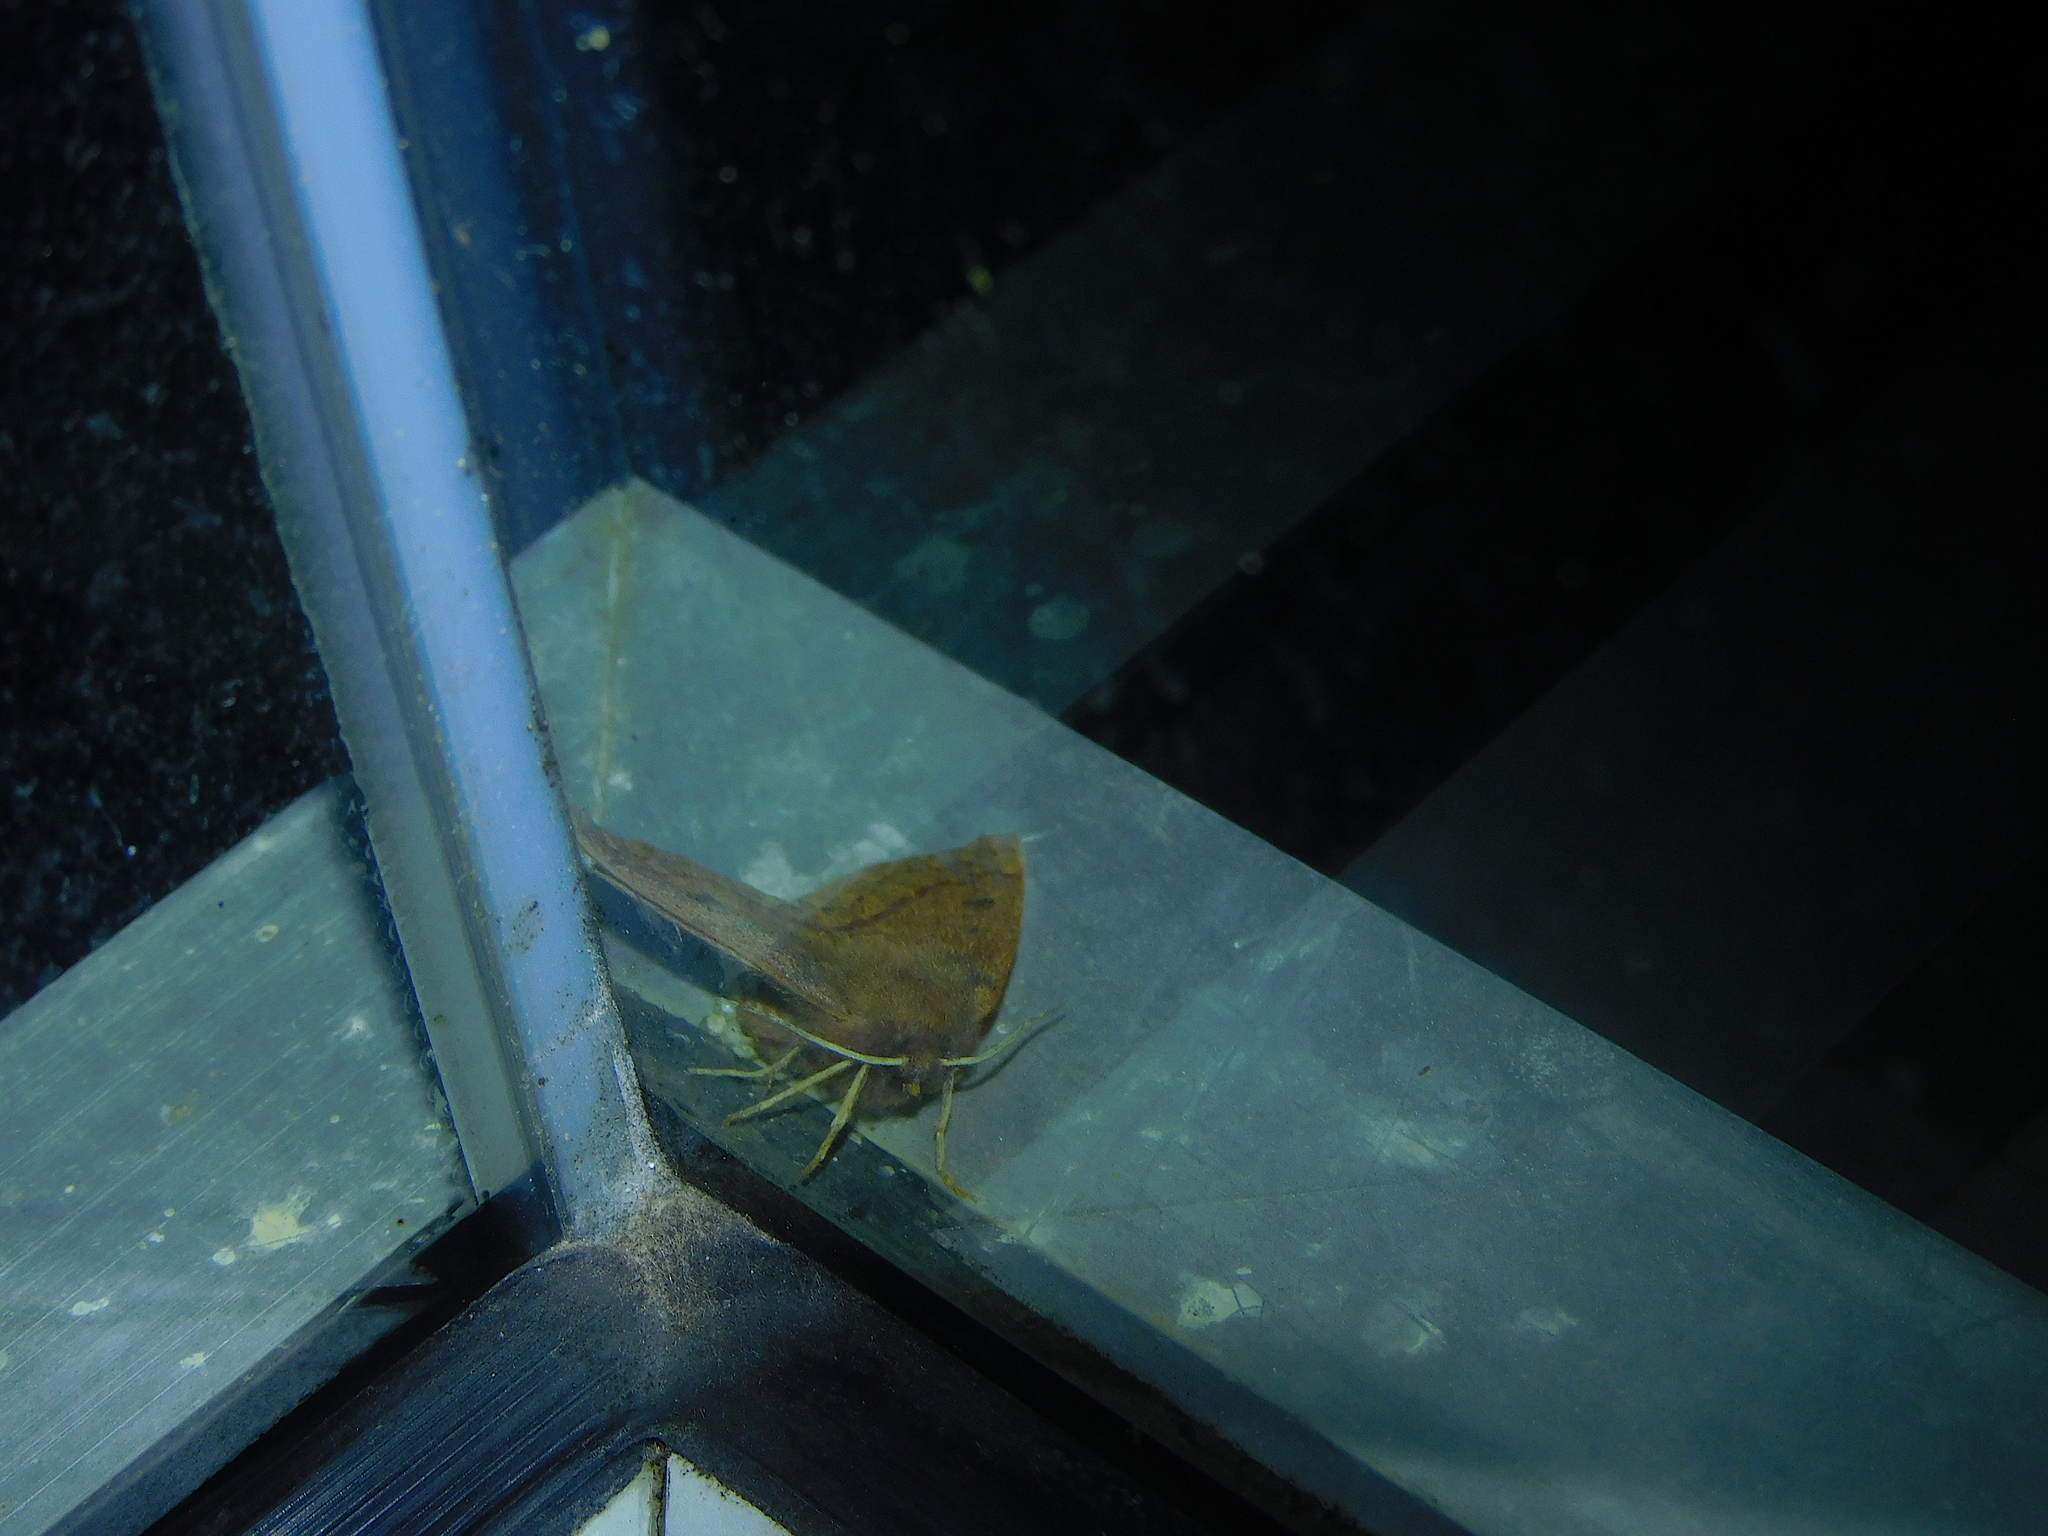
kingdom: Animalia
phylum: Arthropoda
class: Insecta
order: Lepidoptera
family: Geometridae
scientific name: Geometridae
